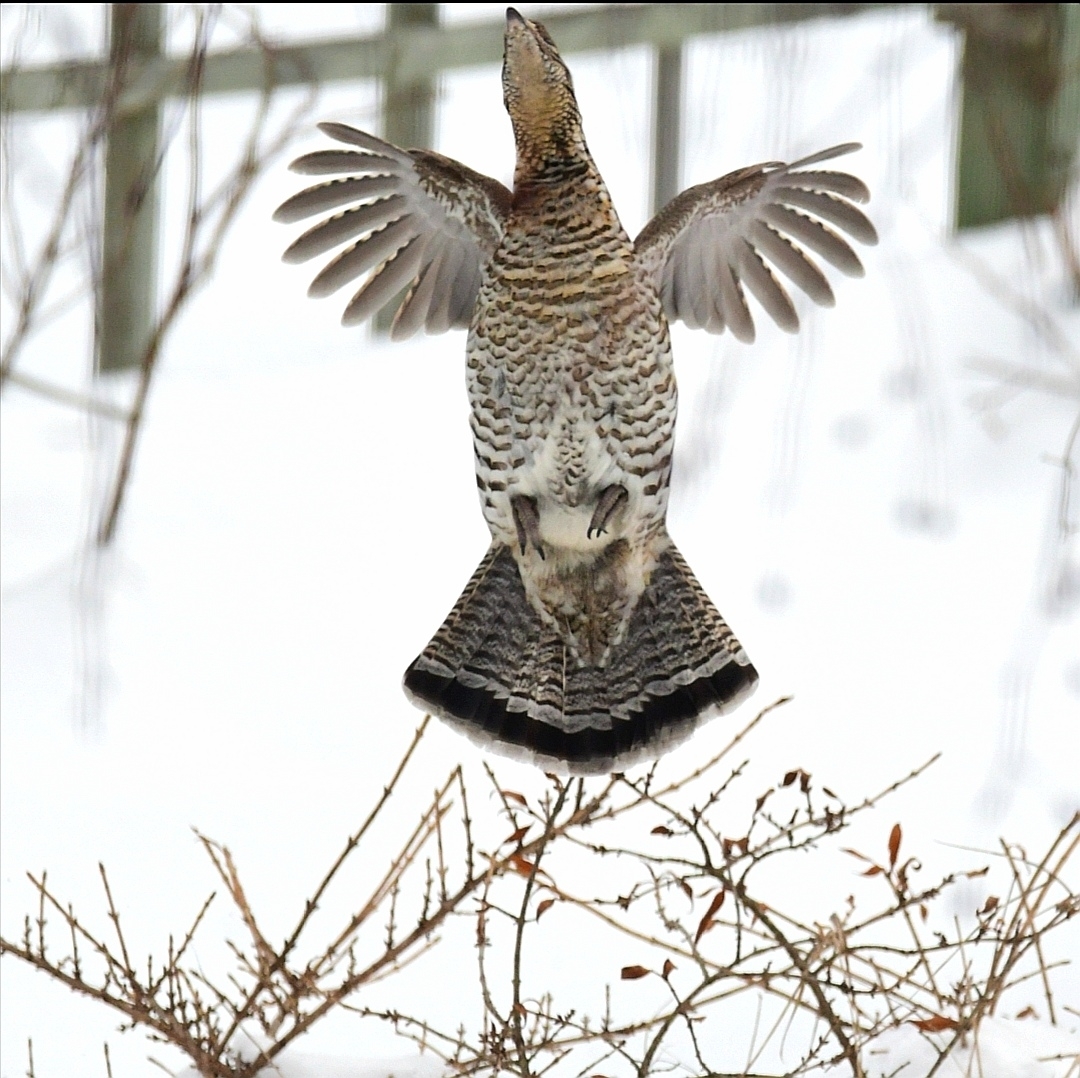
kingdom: Animalia
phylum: Chordata
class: Aves
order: Galliformes
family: Phasianidae
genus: Bonasa
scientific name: Bonasa umbellus
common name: Ruffed grouse
